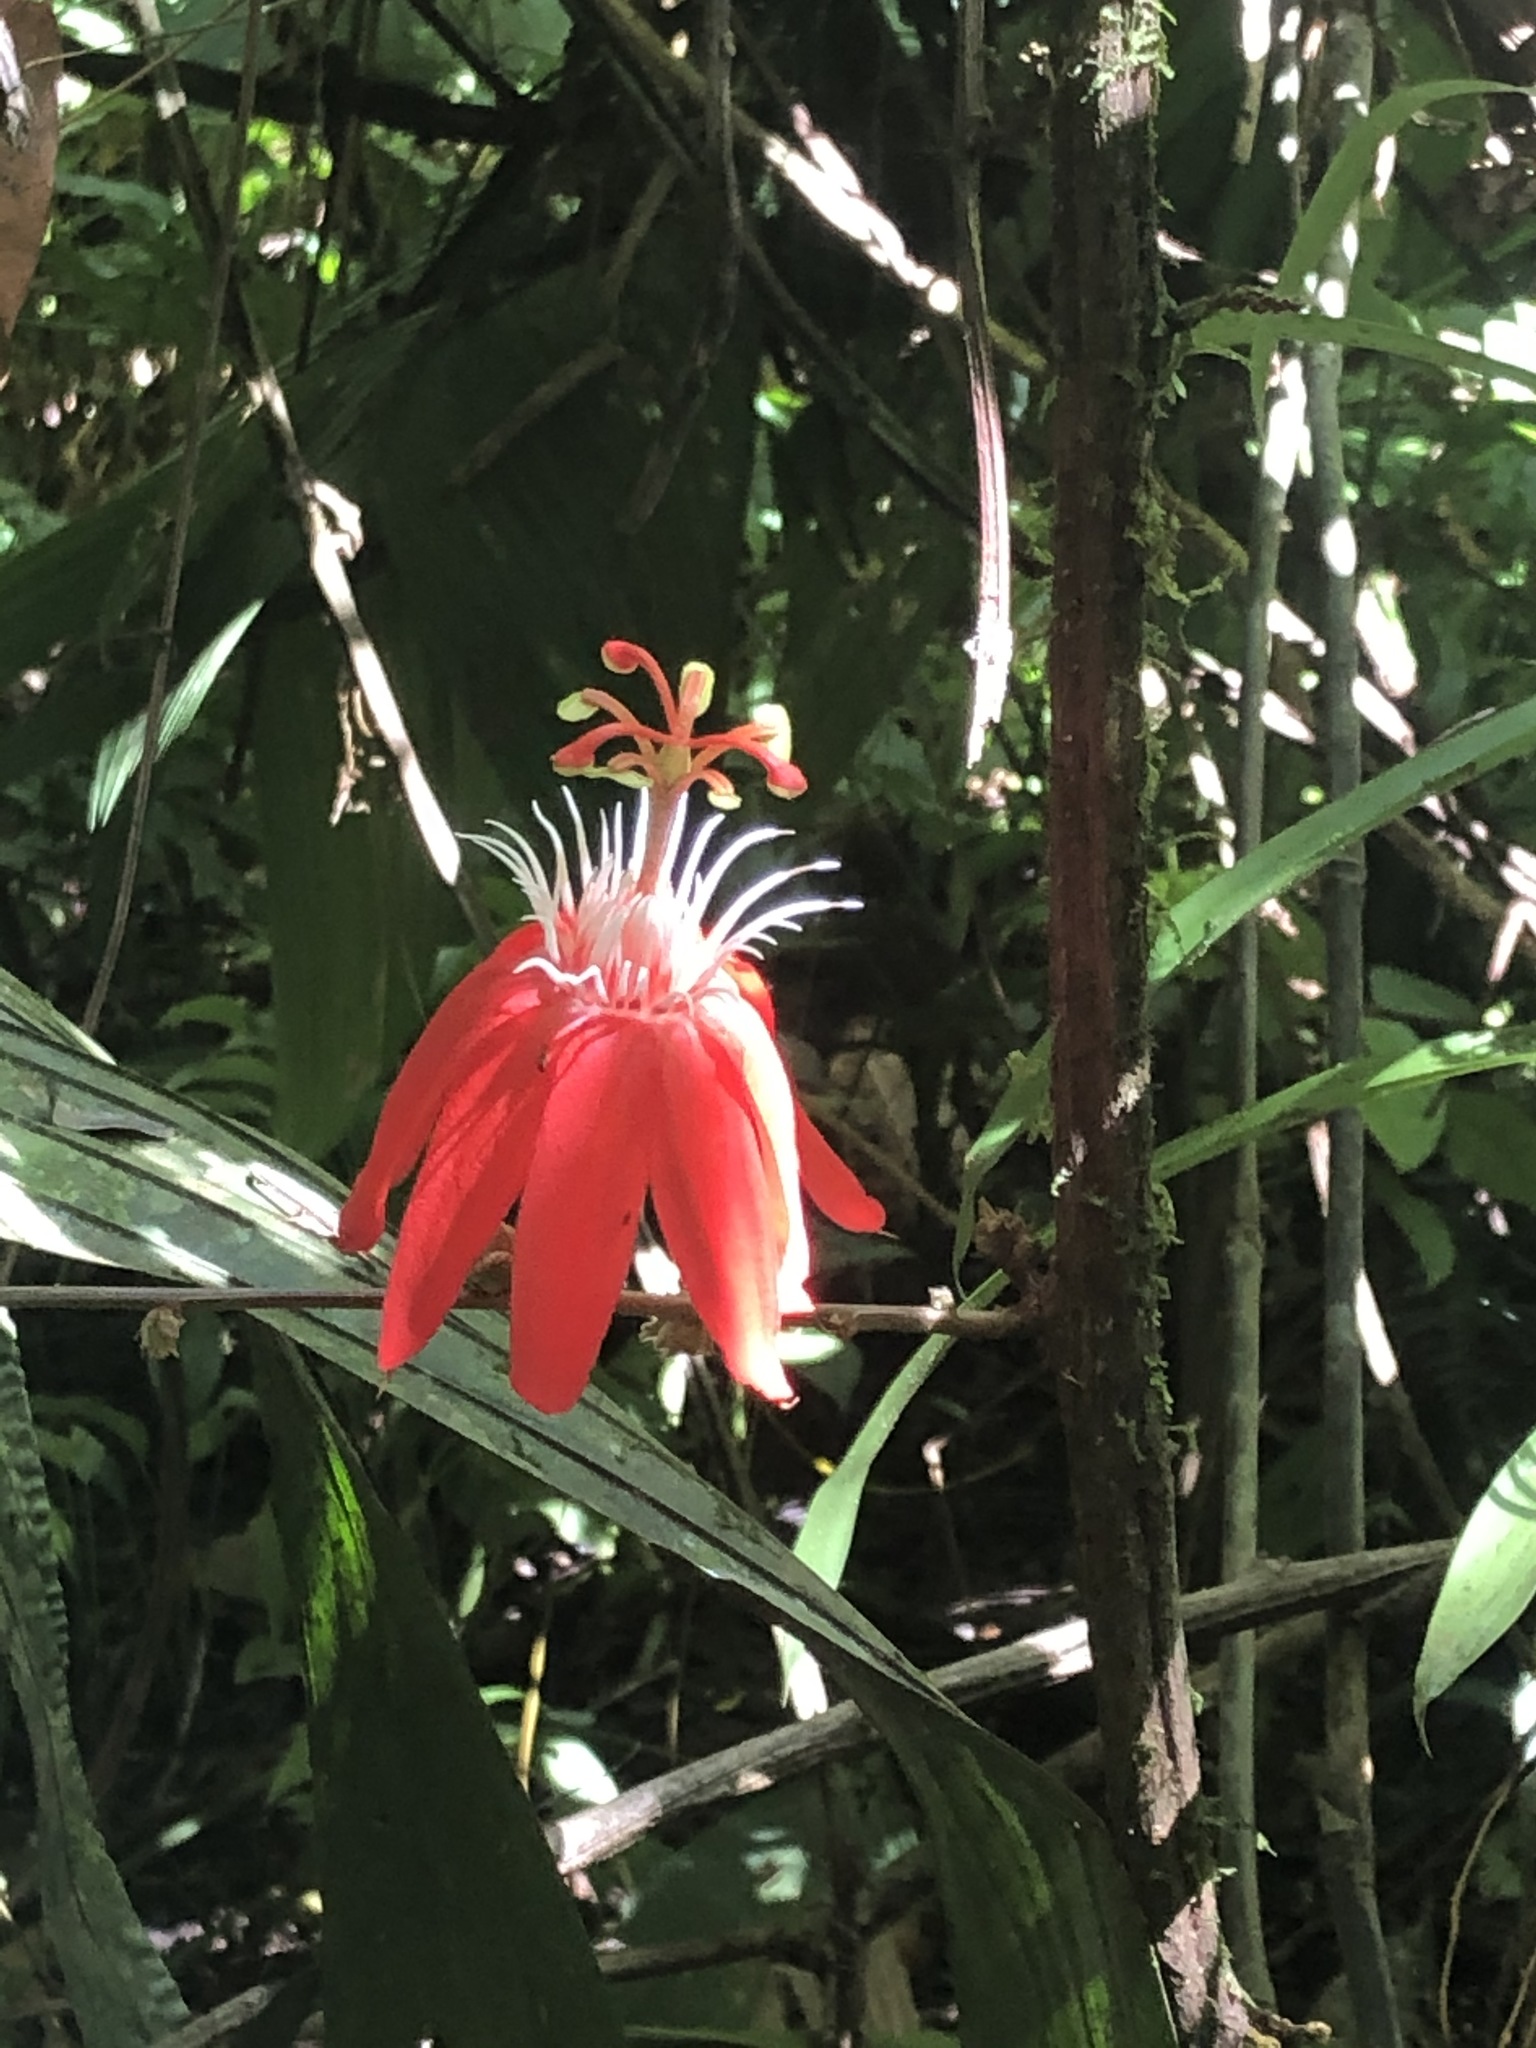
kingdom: Plantae
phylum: Tracheophyta
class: Magnoliopsida
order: Malpighiales
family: Passifloraceae
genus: Passiflora
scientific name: Passiflora vitifolia
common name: Perfumed passionflower
